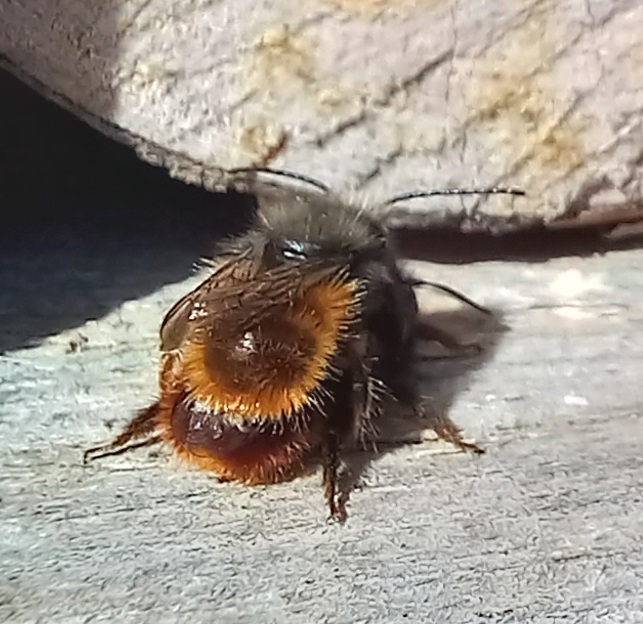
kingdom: Animalia
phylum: Arthropoda
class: Insecta
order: Hymenoptera
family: Megachilidae
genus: Osmia
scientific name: Osmia cornuta
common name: Mason bee
